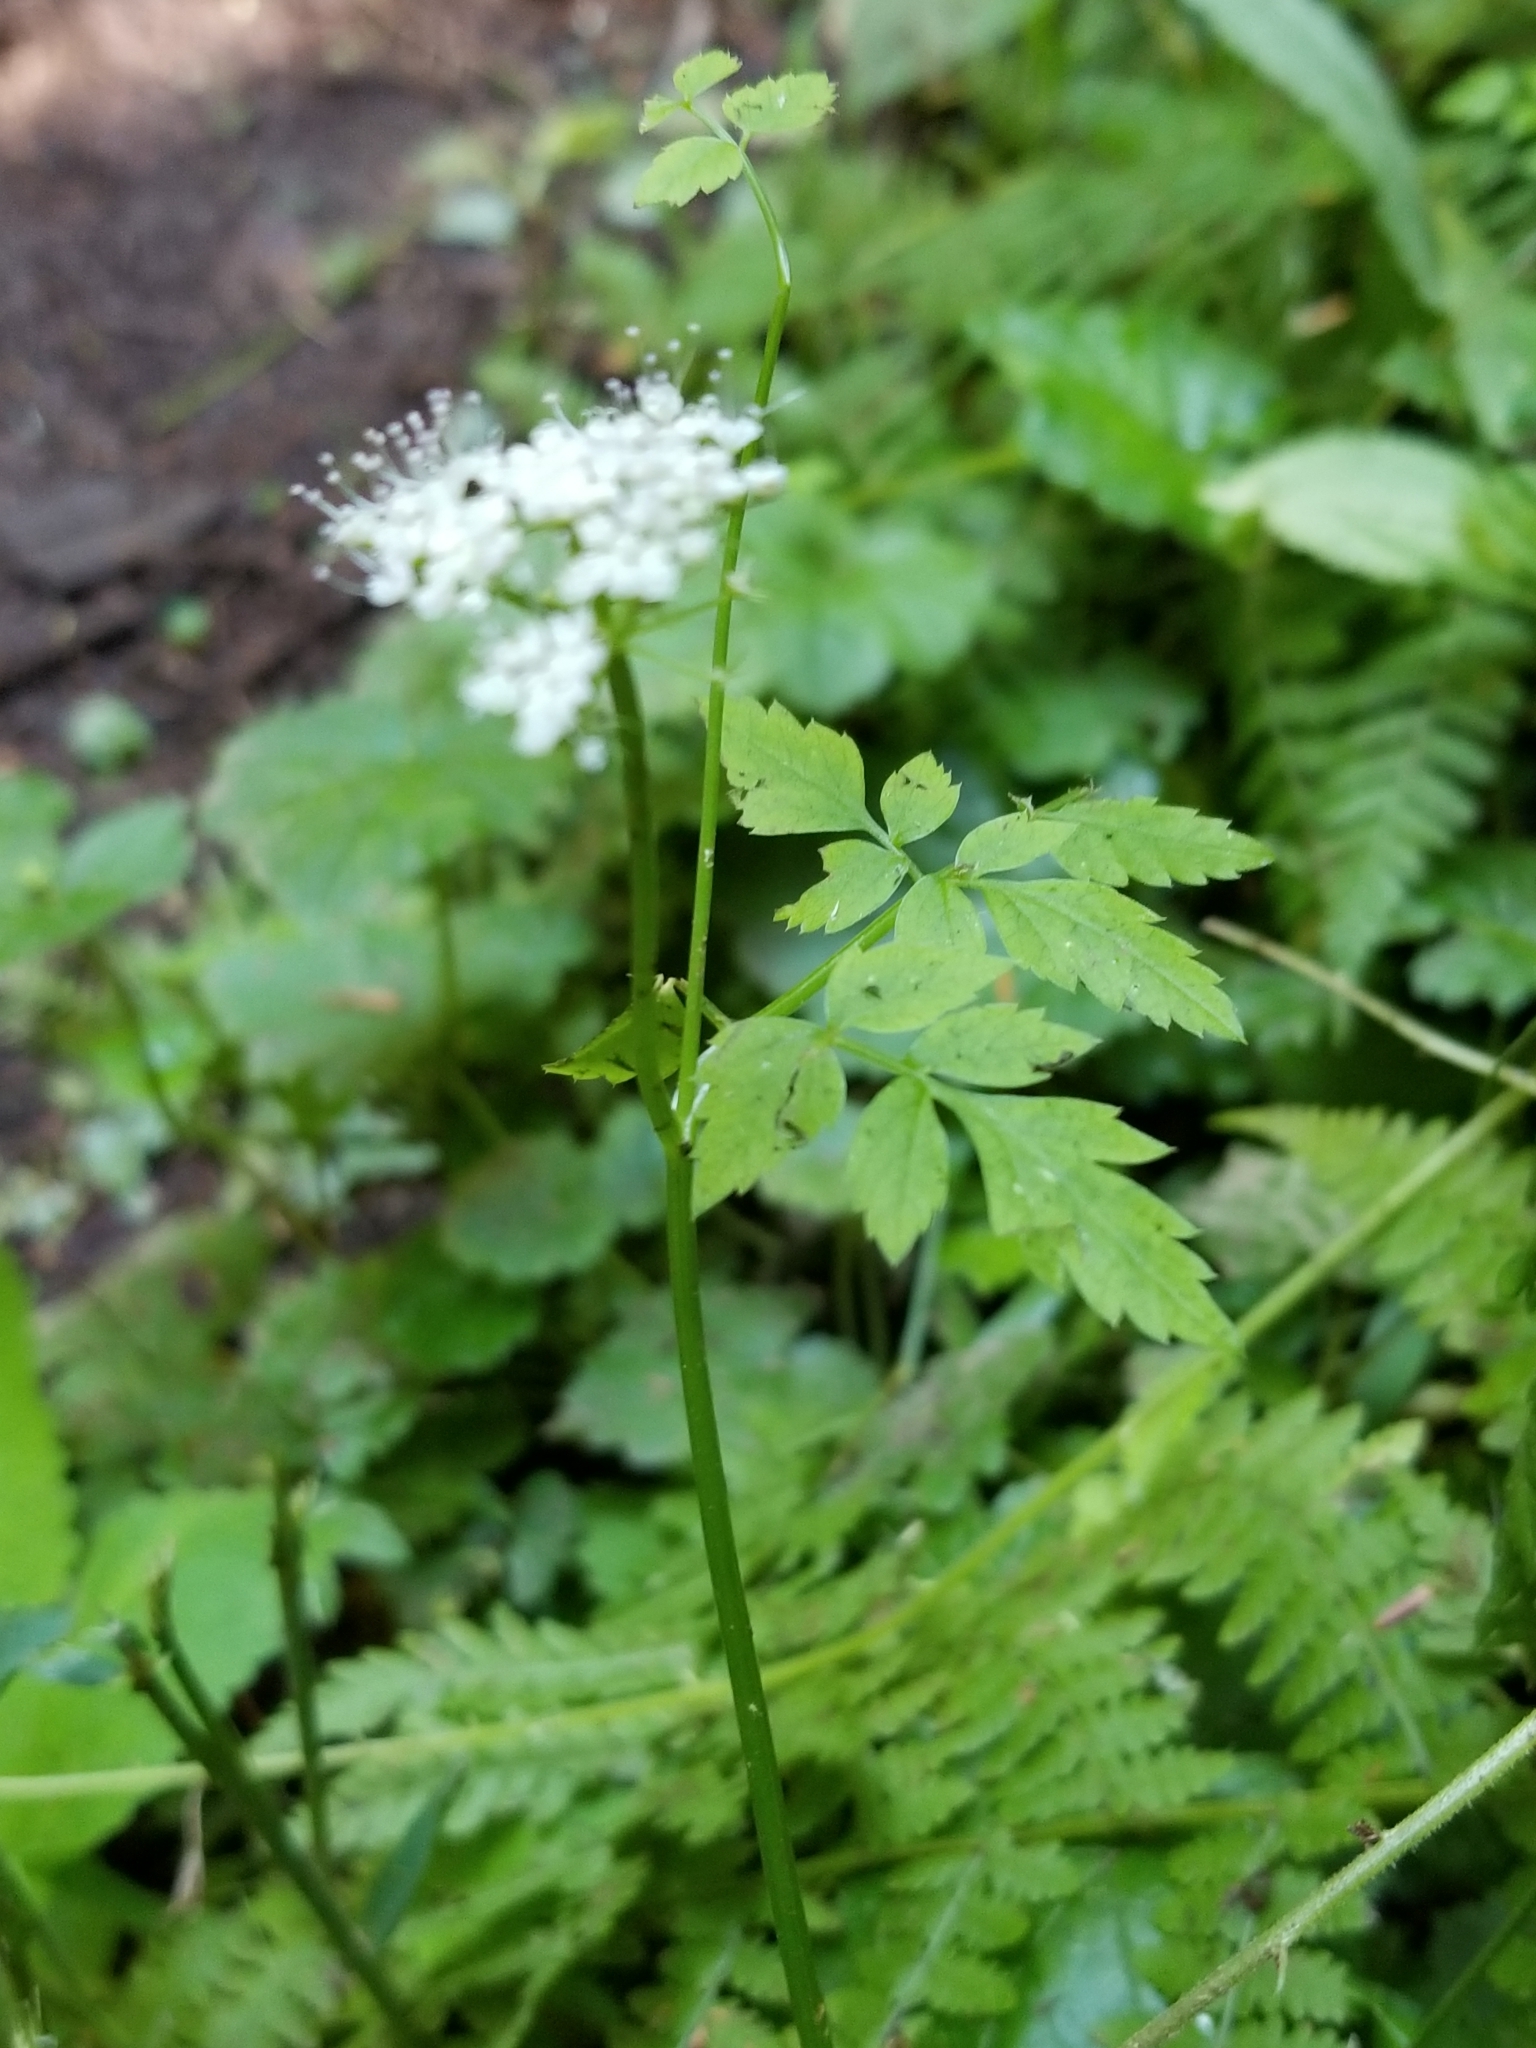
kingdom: Plantae
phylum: Tracheophyta
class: Magnoliopsida
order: Apiales
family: Apiaceae
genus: Oenanthe
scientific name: Oenanthe sarmentosa
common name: American water-parsley
